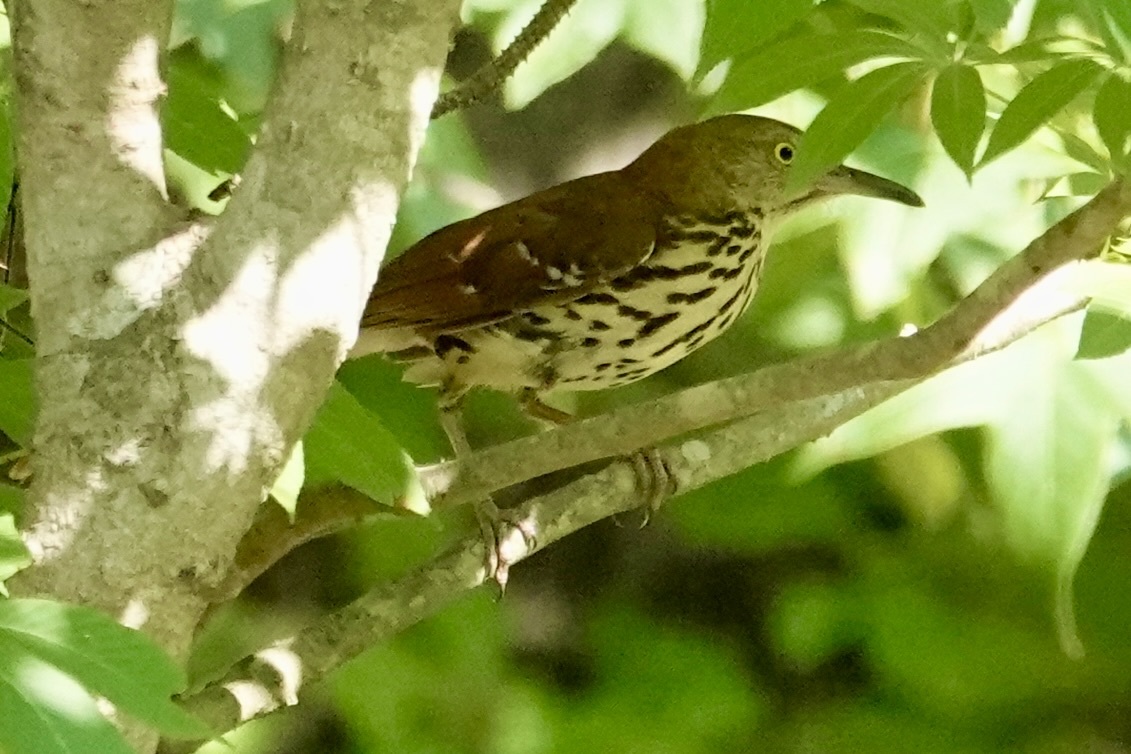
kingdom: Animalia
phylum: Chordata
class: Aves
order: Passeriformes
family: Mimidae
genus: Toxostoma
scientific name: Toxostoma rufum
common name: Brown thrasher
